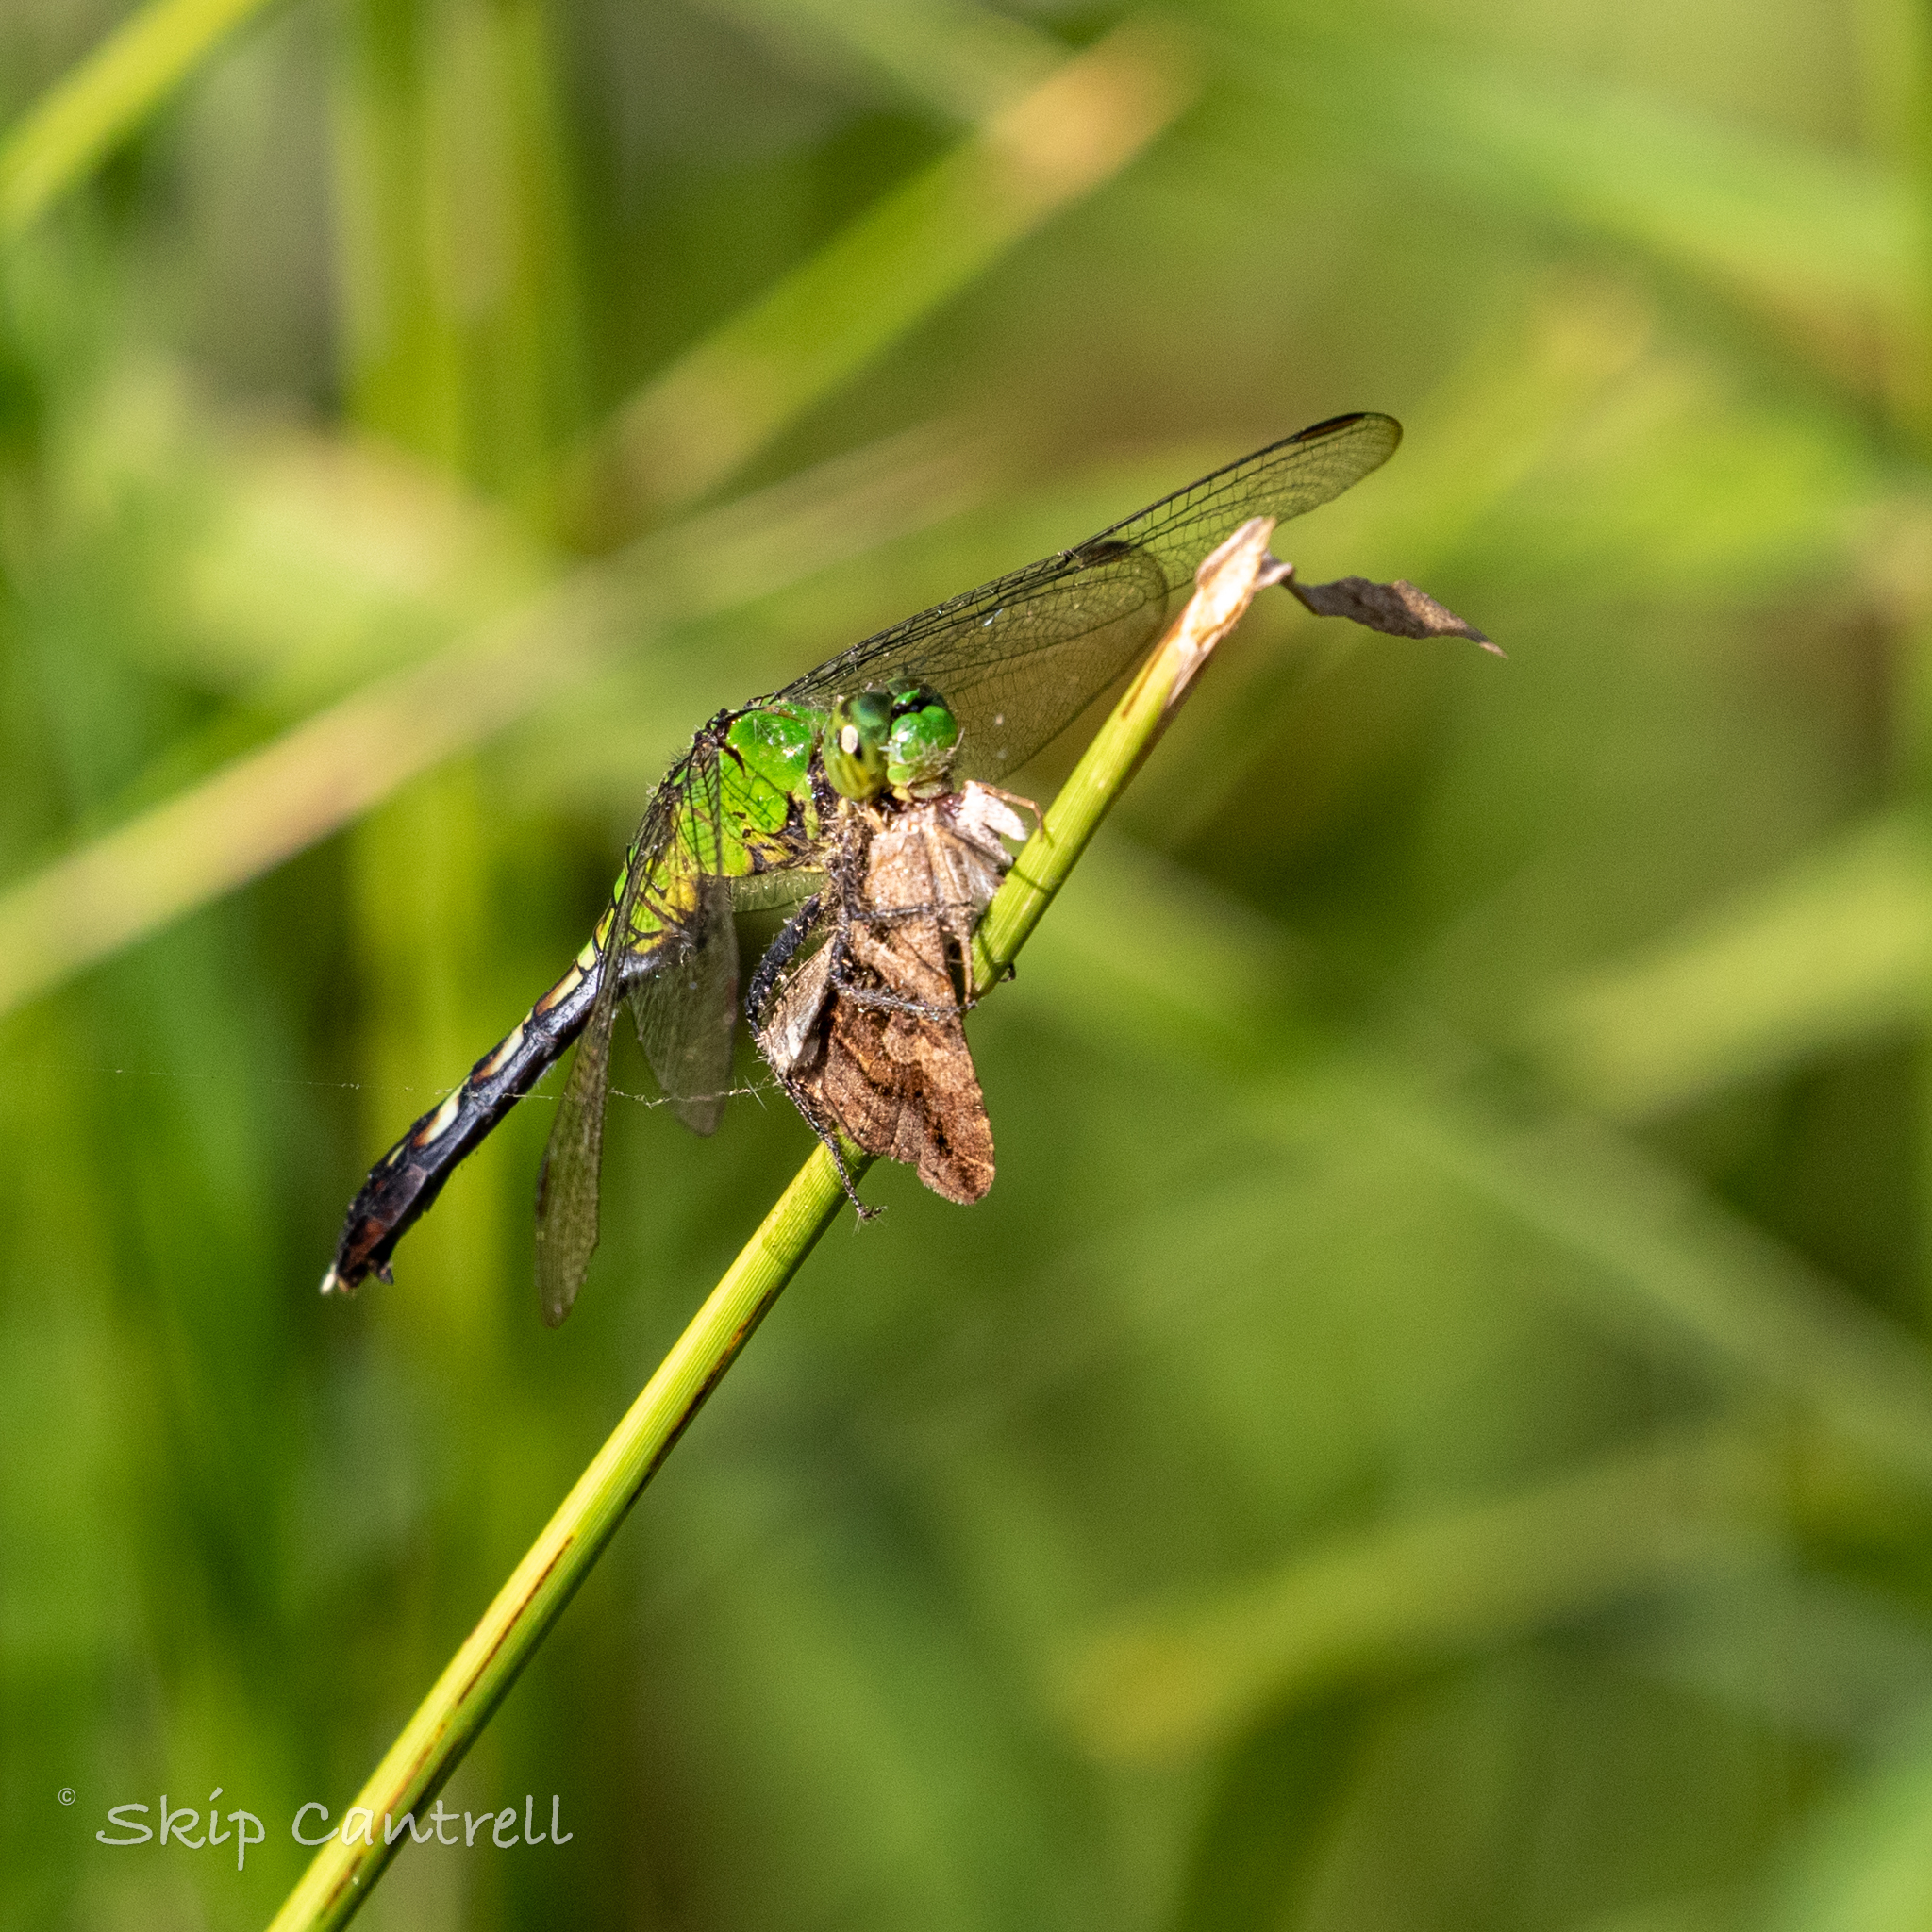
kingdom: Animalia
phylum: Arthropoda
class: Insecta
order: Odonata
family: Libellulidae
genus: Erythemis
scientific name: Erythemis simplicicollis
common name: Eastern pondhawk
